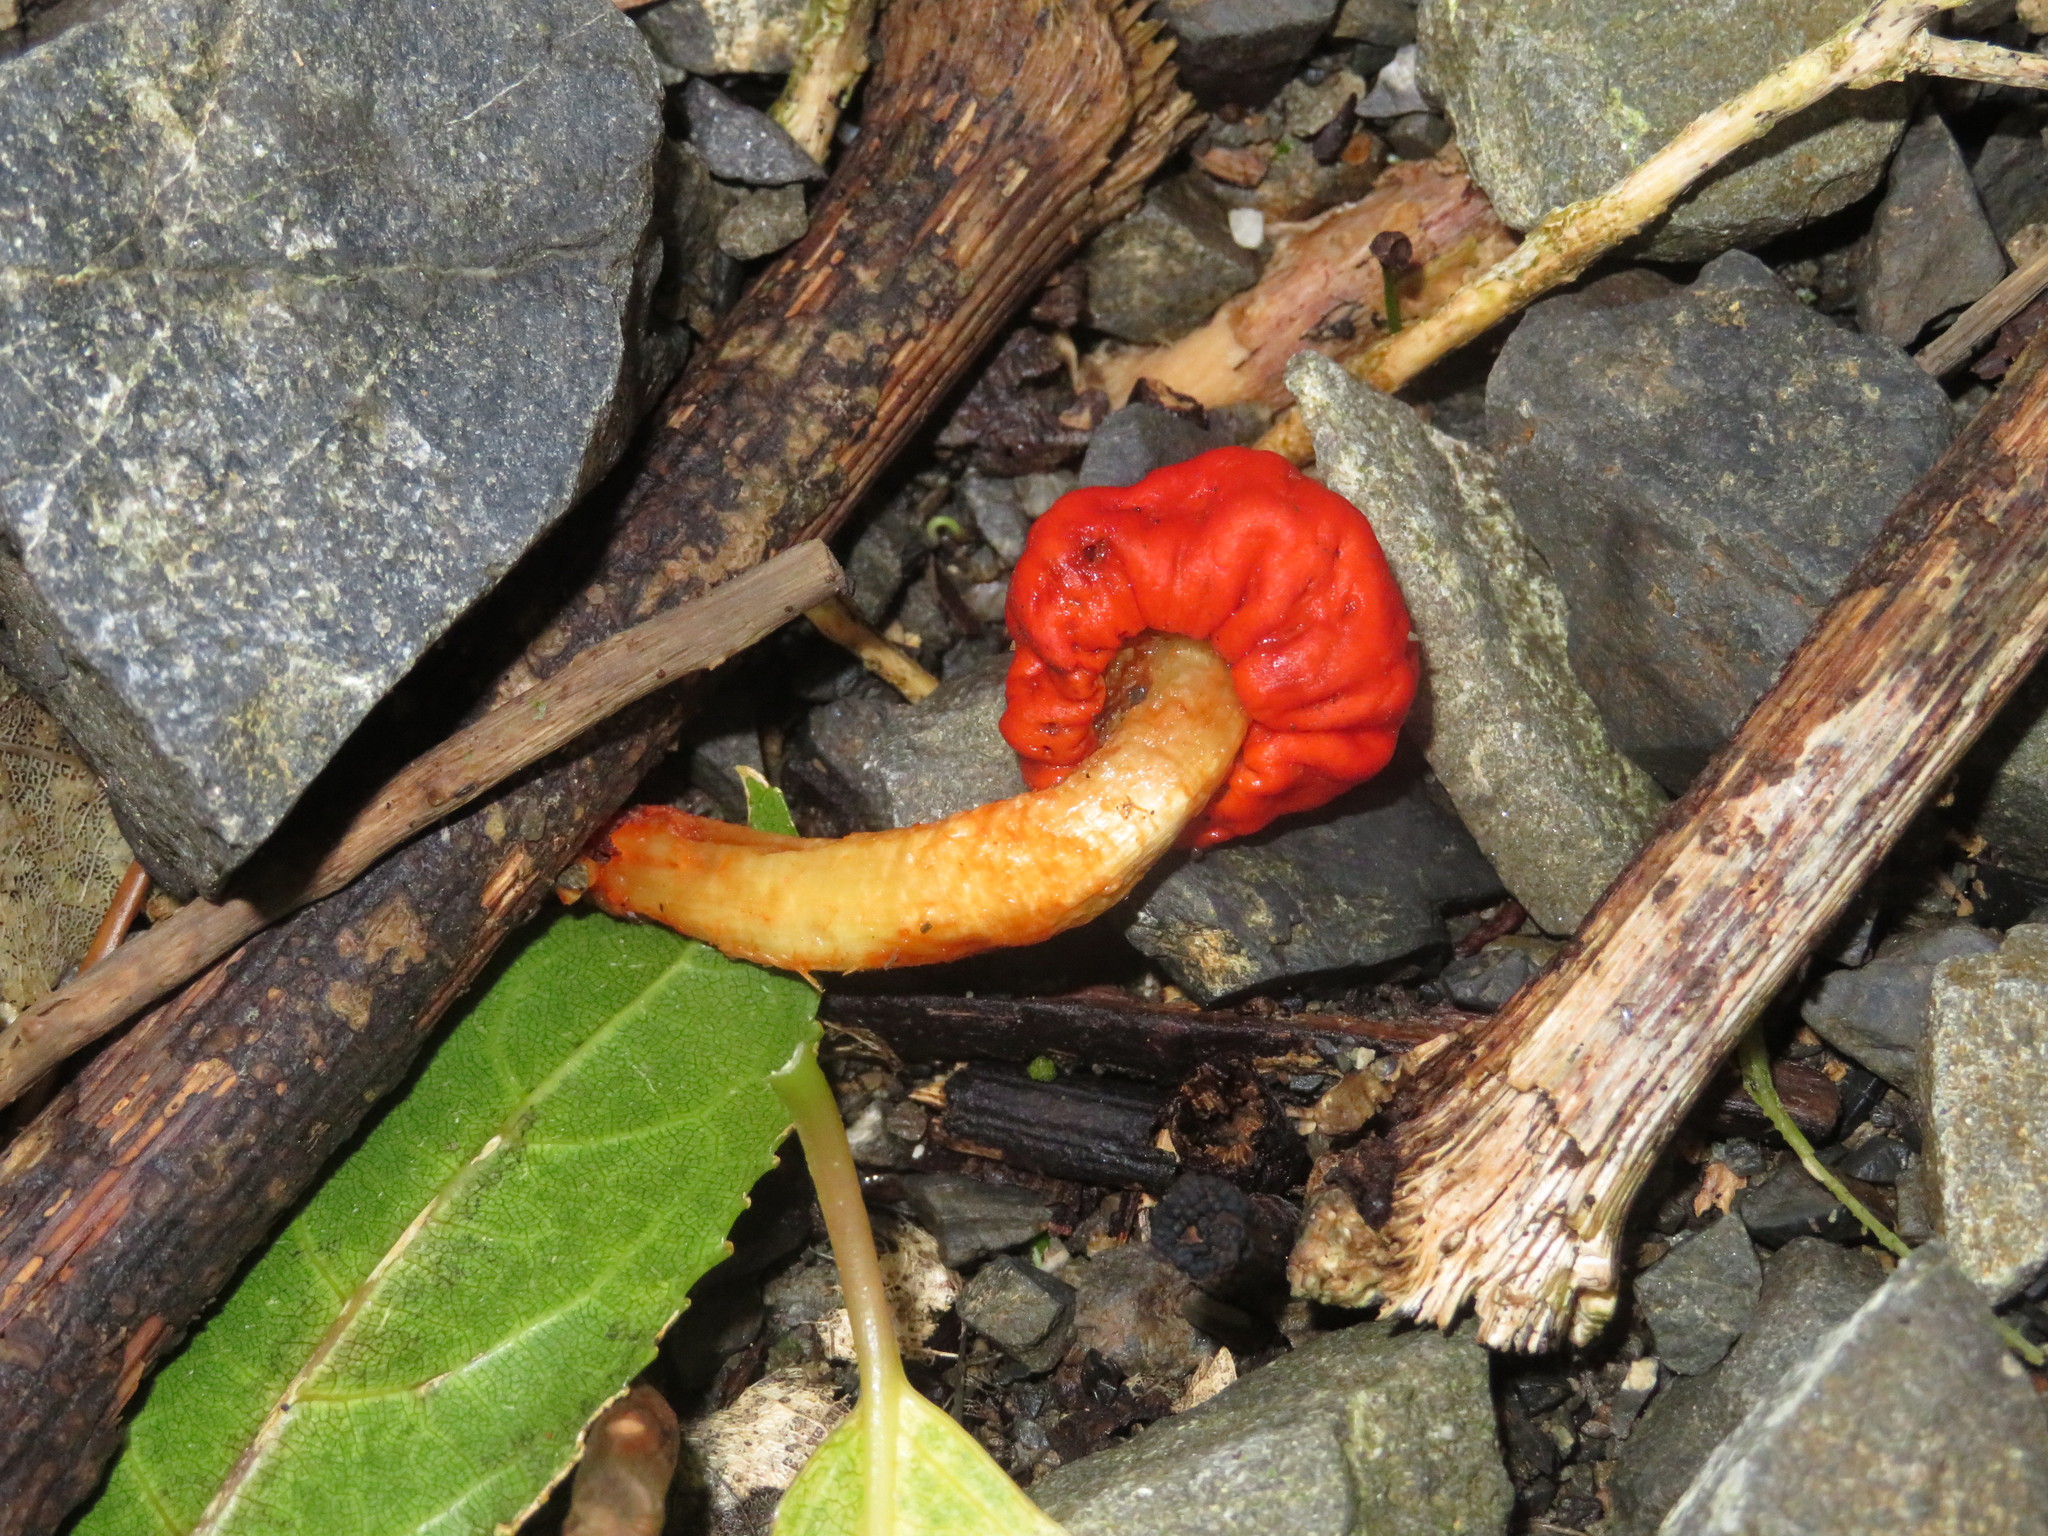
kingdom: Fungi
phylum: Basidiomycota
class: Agaricomycetes
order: Agaricales
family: Strophariaceae
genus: Leratiomyces
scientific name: Leratiomyces erythrocephalus
